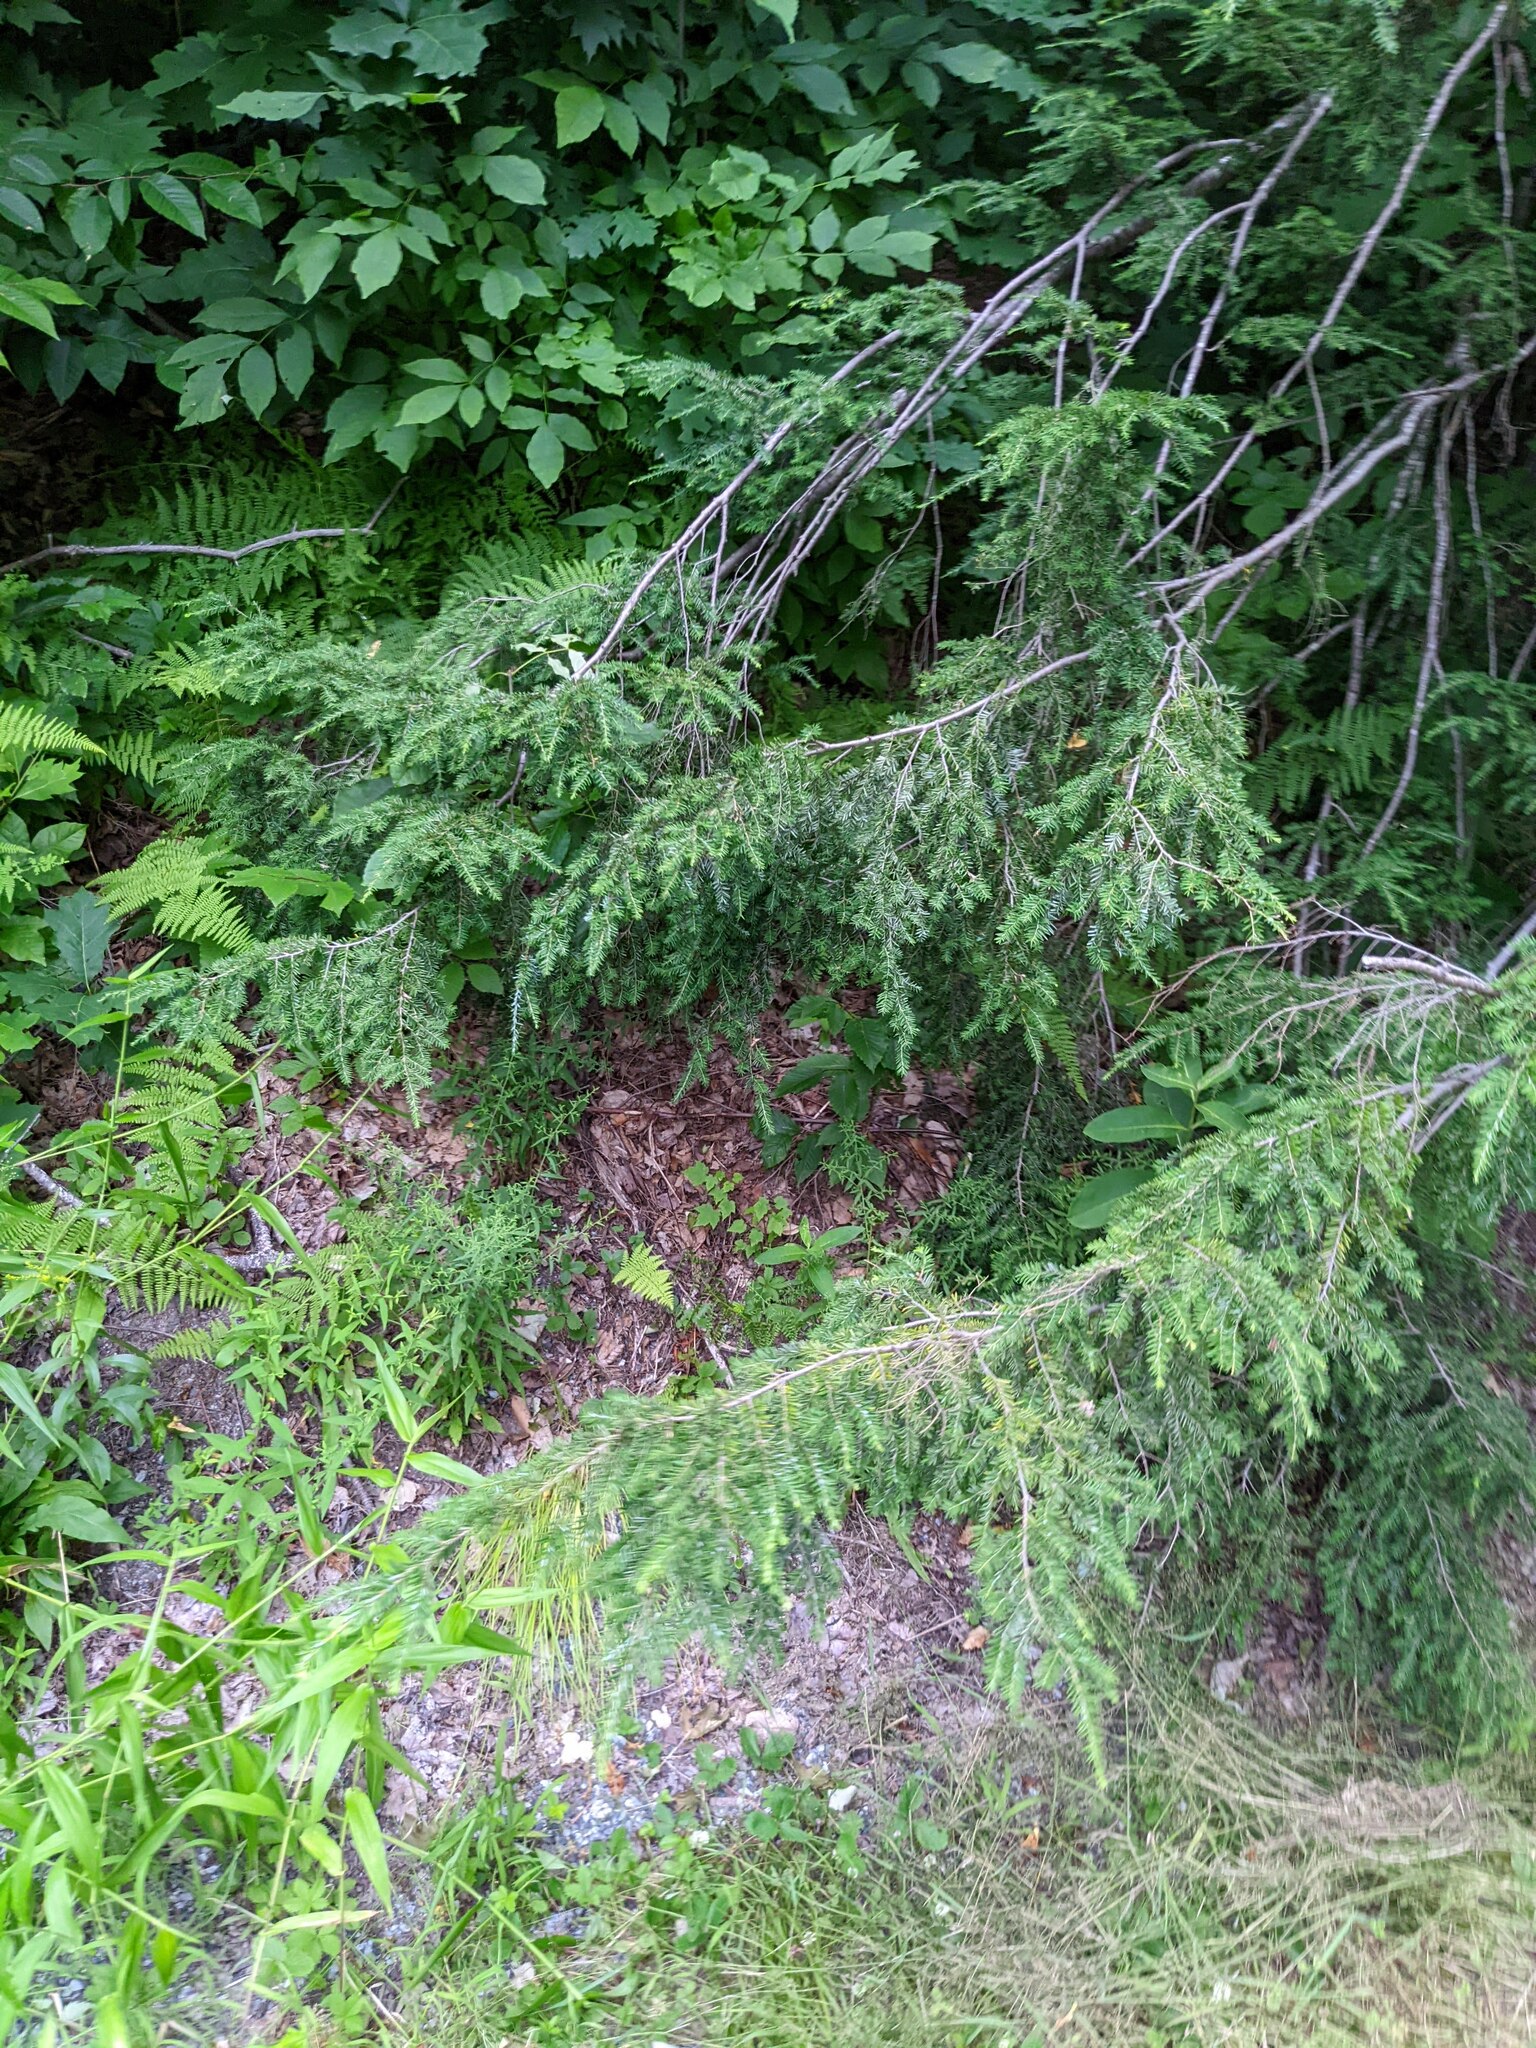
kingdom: Plantae
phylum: Tracheophyta
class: Pinopsida
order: Pinales
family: Pinaceae
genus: Tsuga
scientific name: Tsuga canadensis
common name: Eastern hemlock
